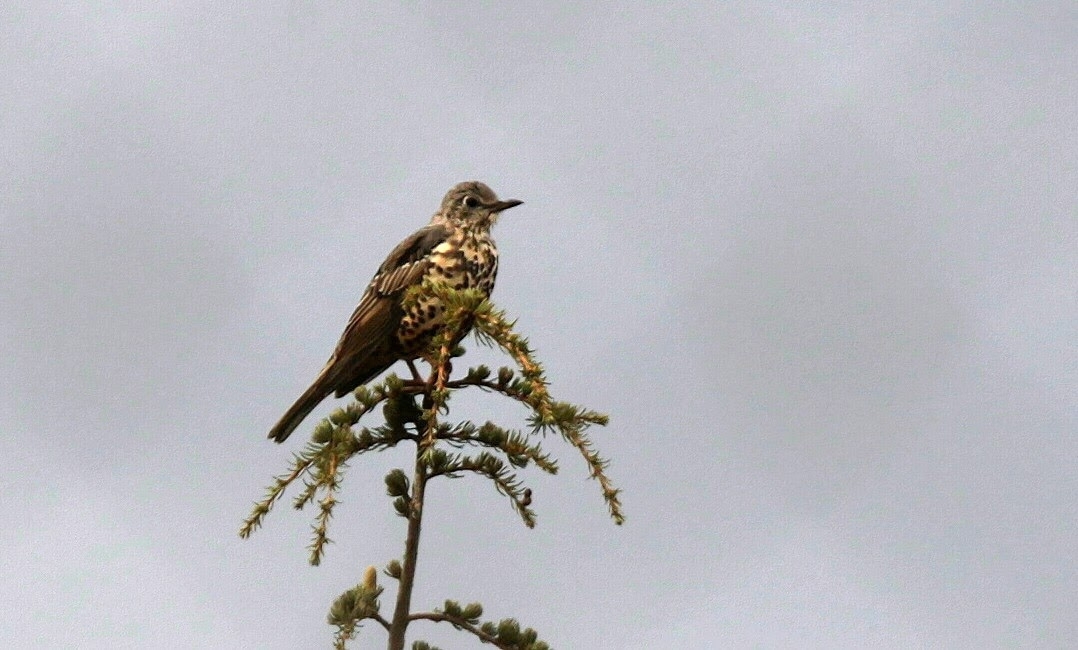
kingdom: Animalia
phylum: Chordata
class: Aves
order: Passeriformes
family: Turdidae
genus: Turdus
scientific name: Turdus viscivorus
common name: Mistle thrush
